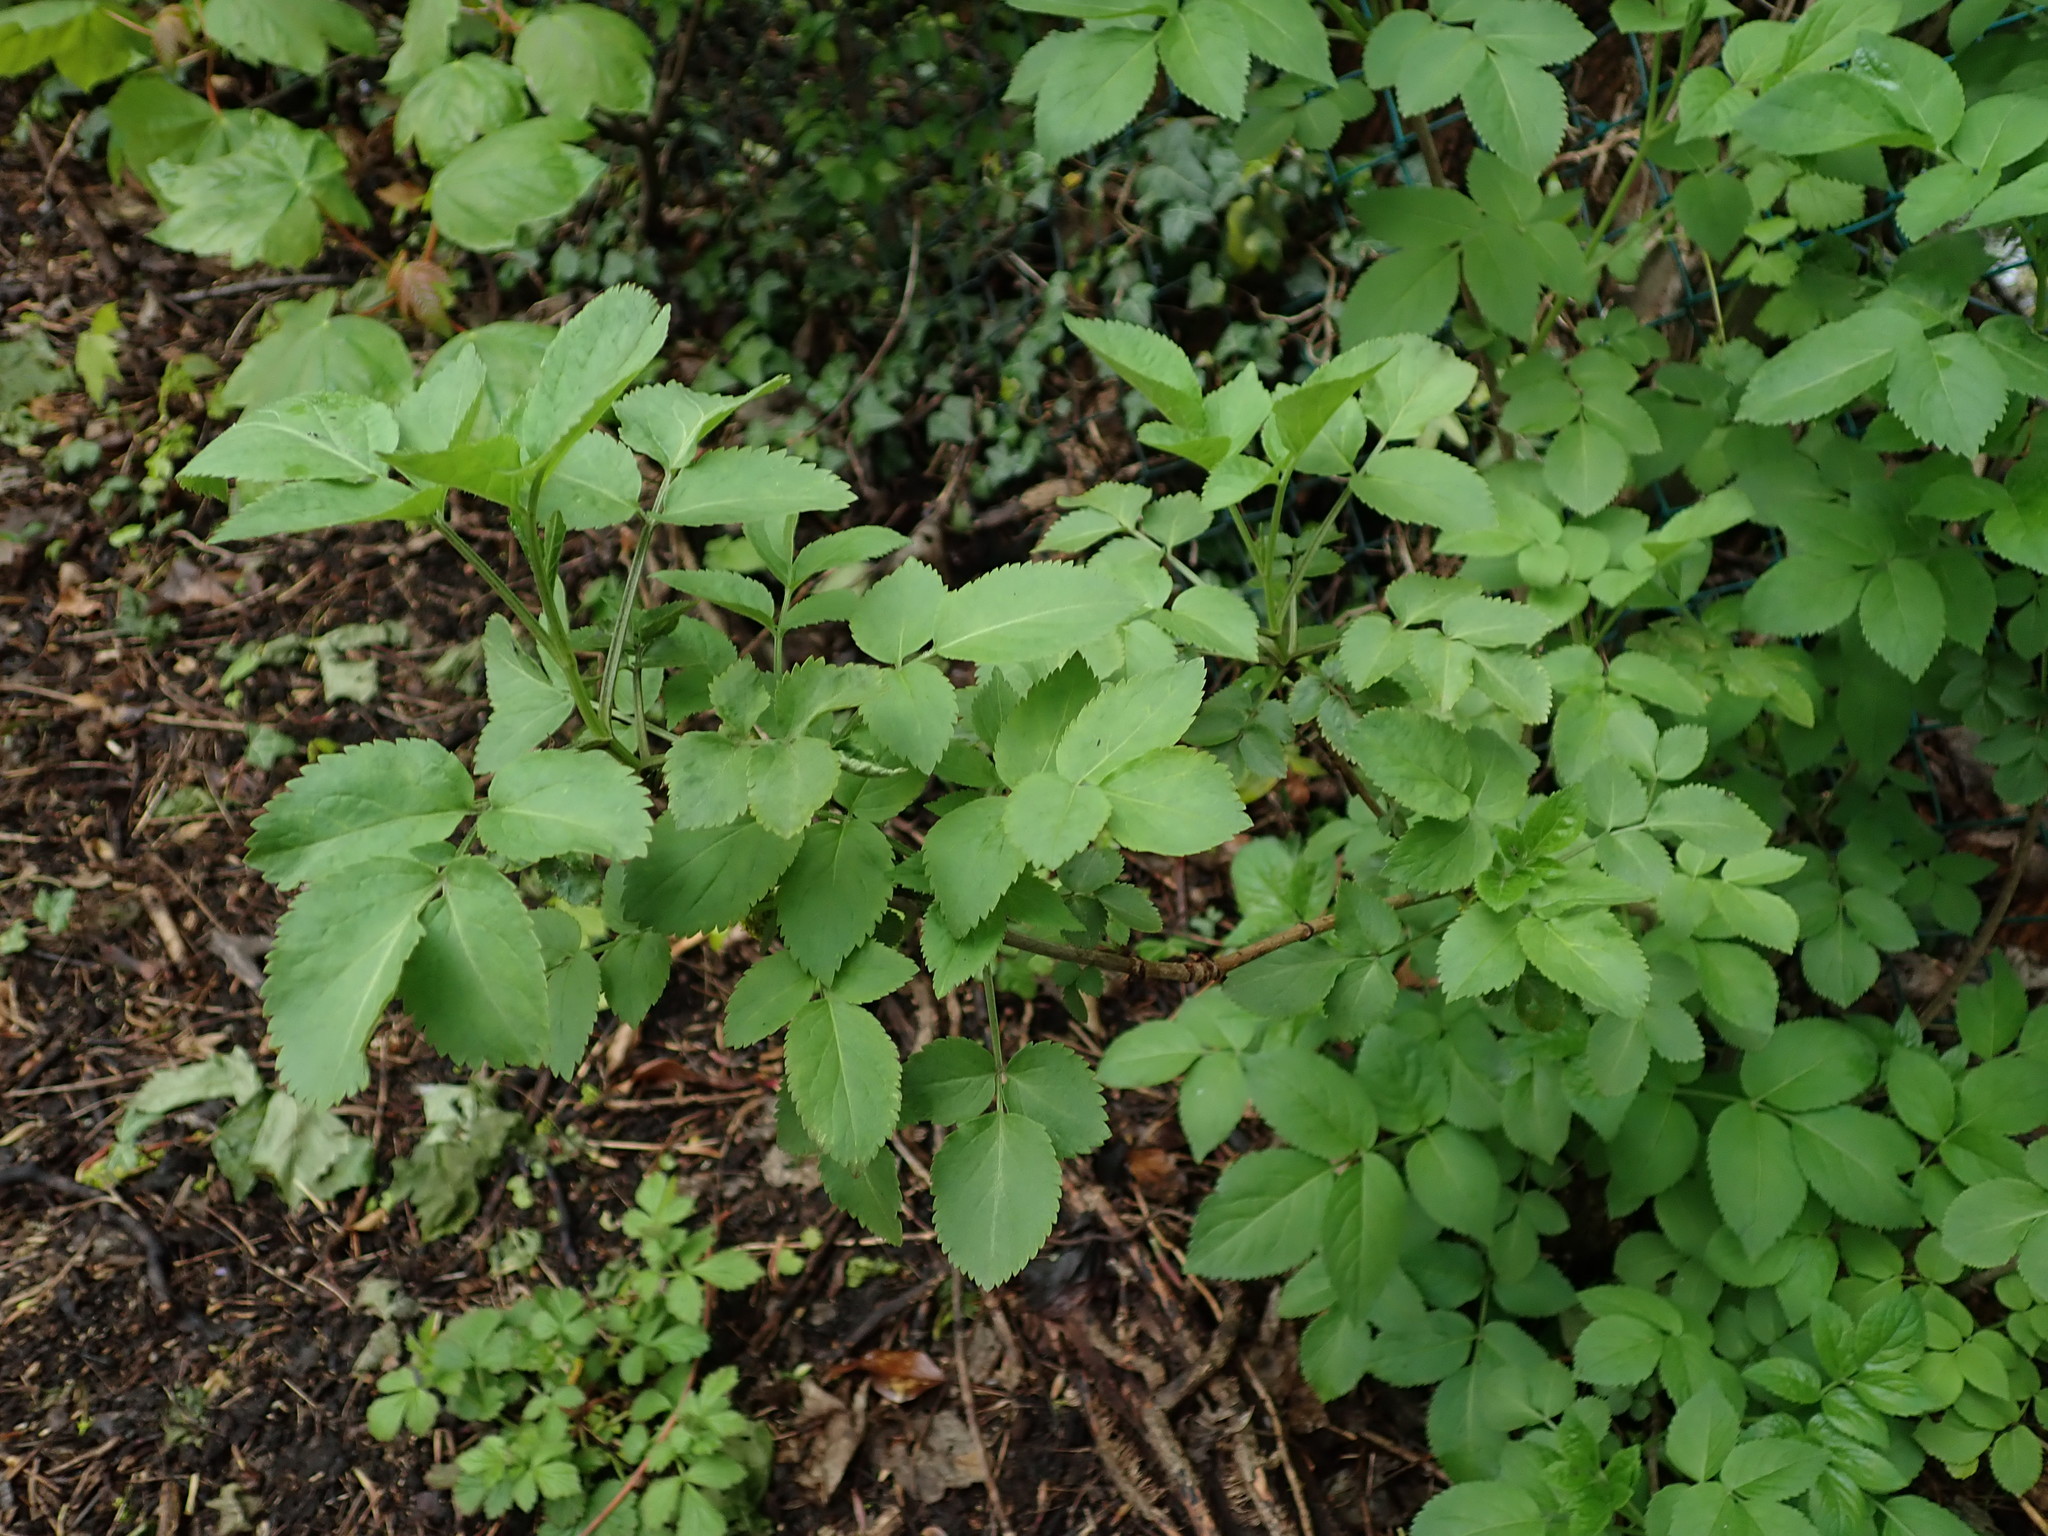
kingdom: Plantae
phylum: Tracheophyta
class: Magnoliopsida
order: Dipsacales
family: Viburnaceae
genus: Sambucus
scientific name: Sambucus nigra
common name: Elder
